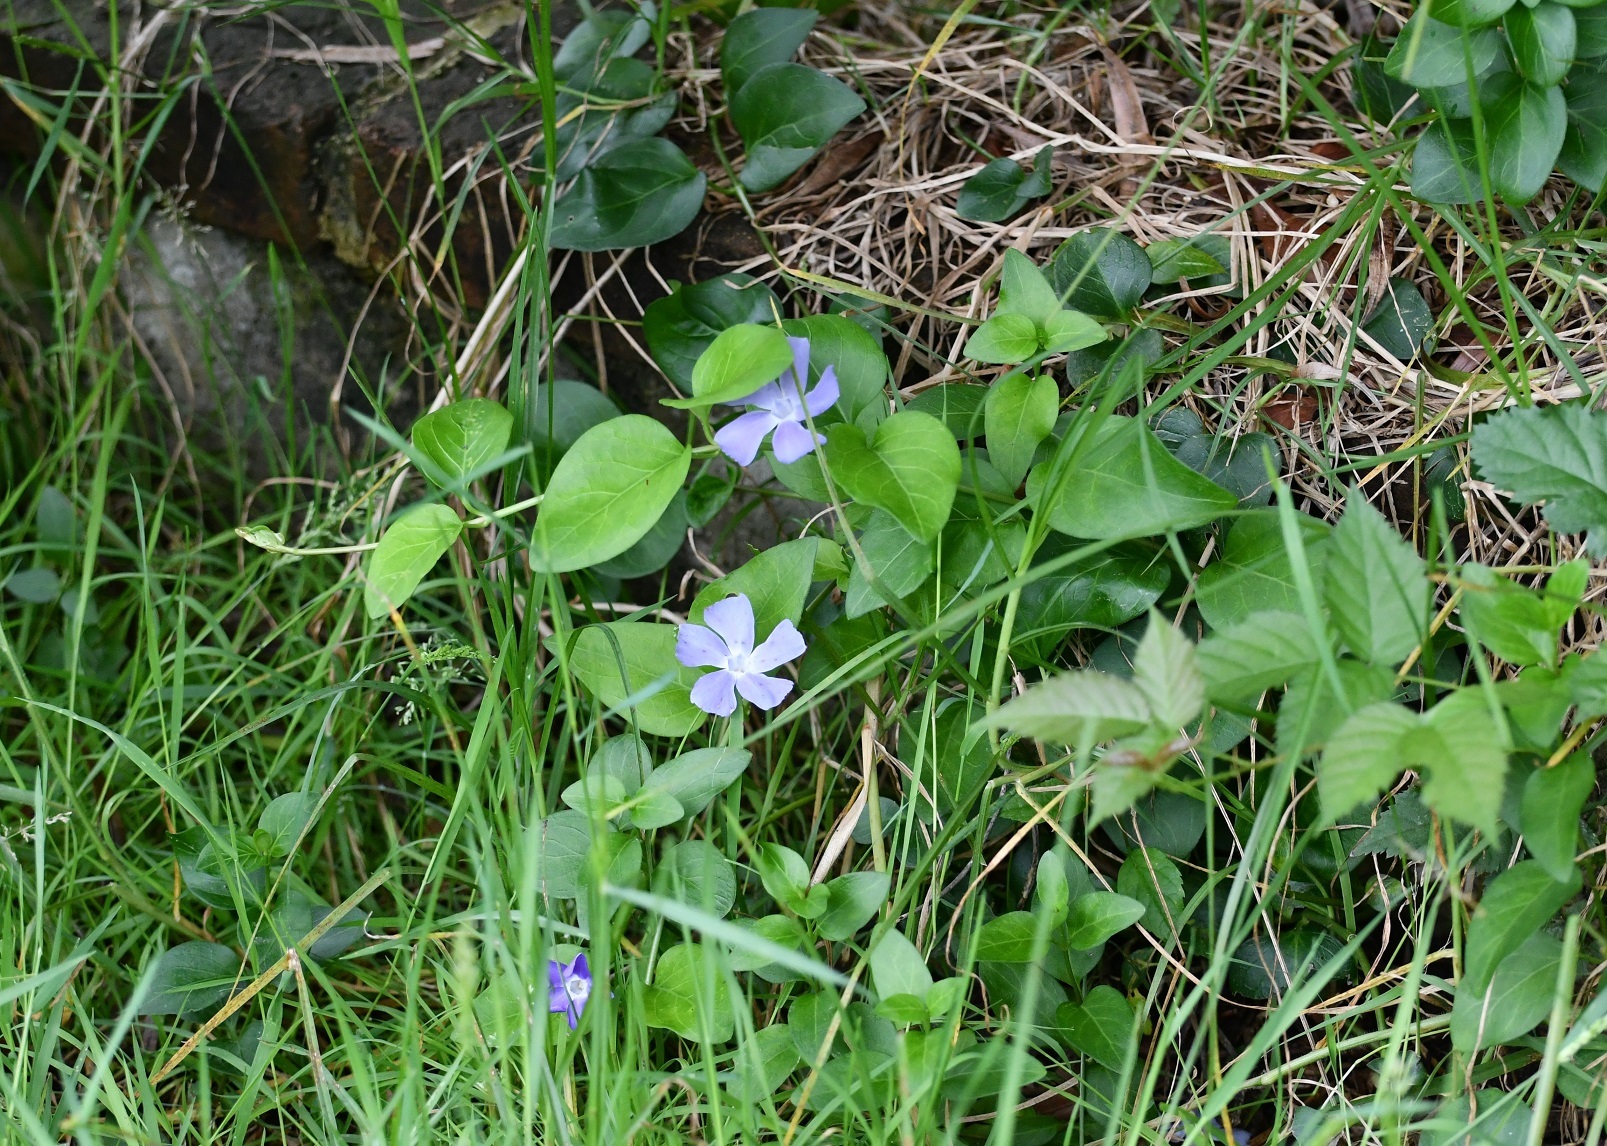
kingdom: Plantae
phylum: Tracheophyta
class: Magnoliopsida
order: Gentianales
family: Apocynaceae
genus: Vinca
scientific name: Vinca major
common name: Greater periwinkle
